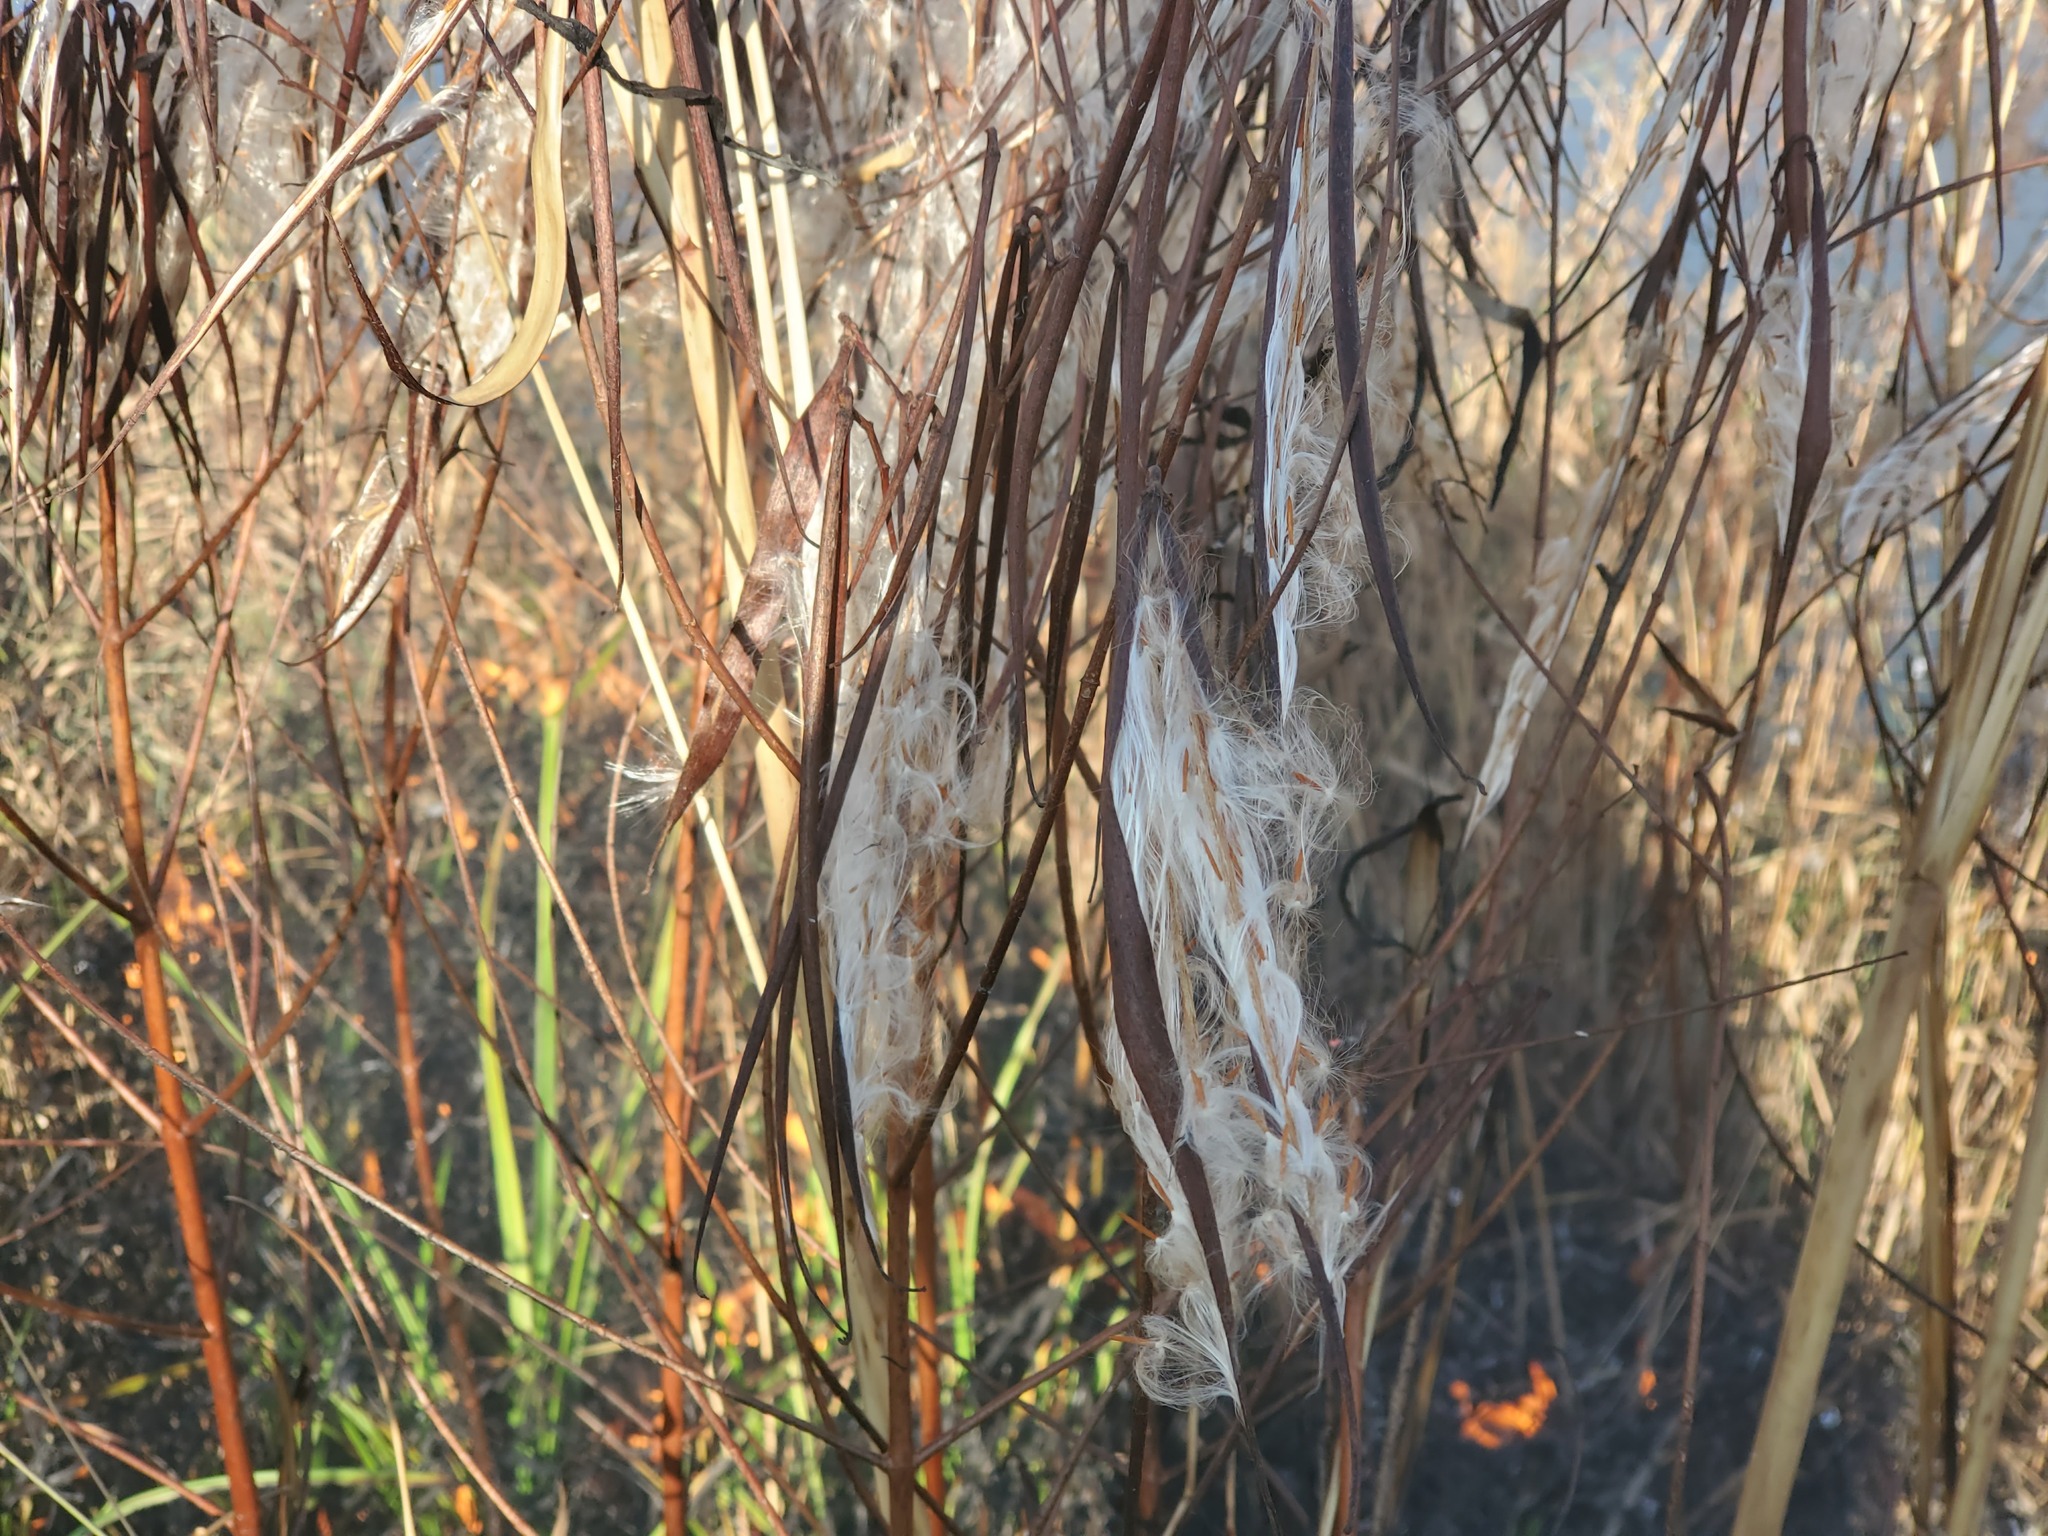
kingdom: Plantae
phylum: Tracheophyta
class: Magnoliopsida
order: Gentianales
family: Apocynaceae
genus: Apocynum
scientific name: Apocynum cannabinum
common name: Hemp dogbane
